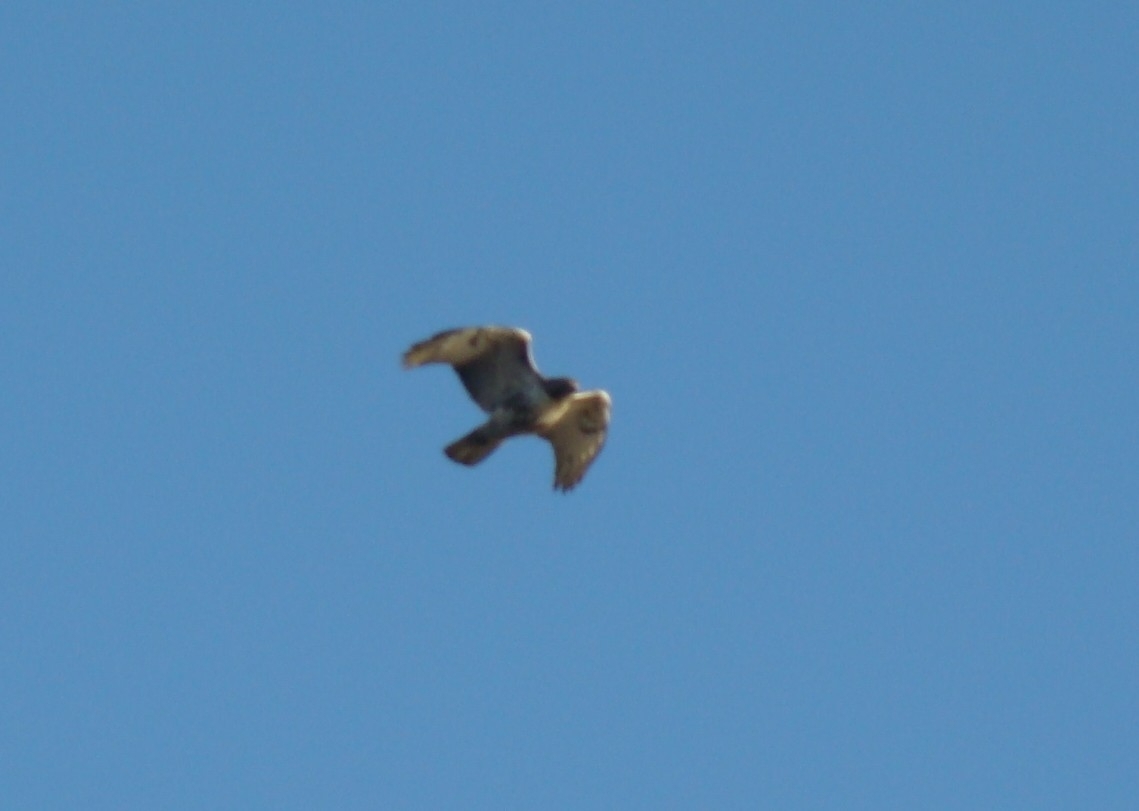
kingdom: Animalia
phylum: Chordata
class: Aves
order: Accipitriformes
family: Accipitridae
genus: Buteo
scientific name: Buteo jamaicensis
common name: Red-tailed hawk
